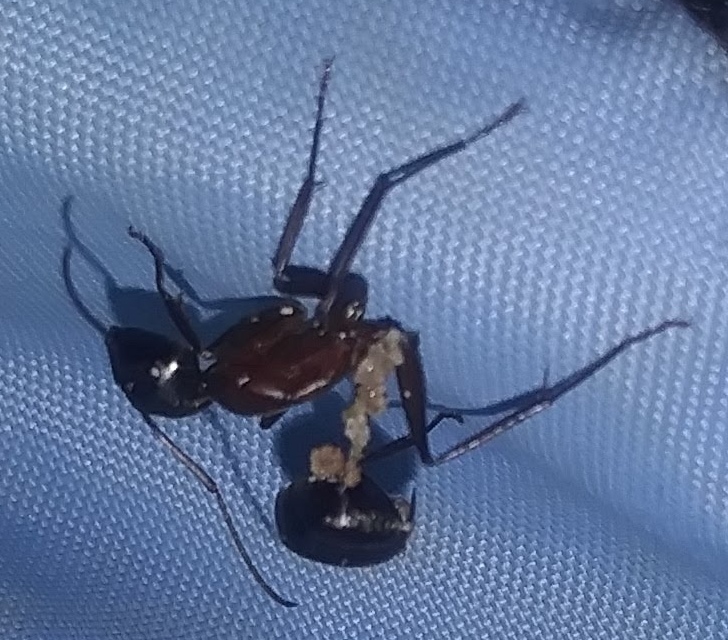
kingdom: Animalia
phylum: Arthropoda
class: Insecta
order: Hymenoptera
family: Formicidae
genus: Camponotus
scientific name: Camponotus vicinus
